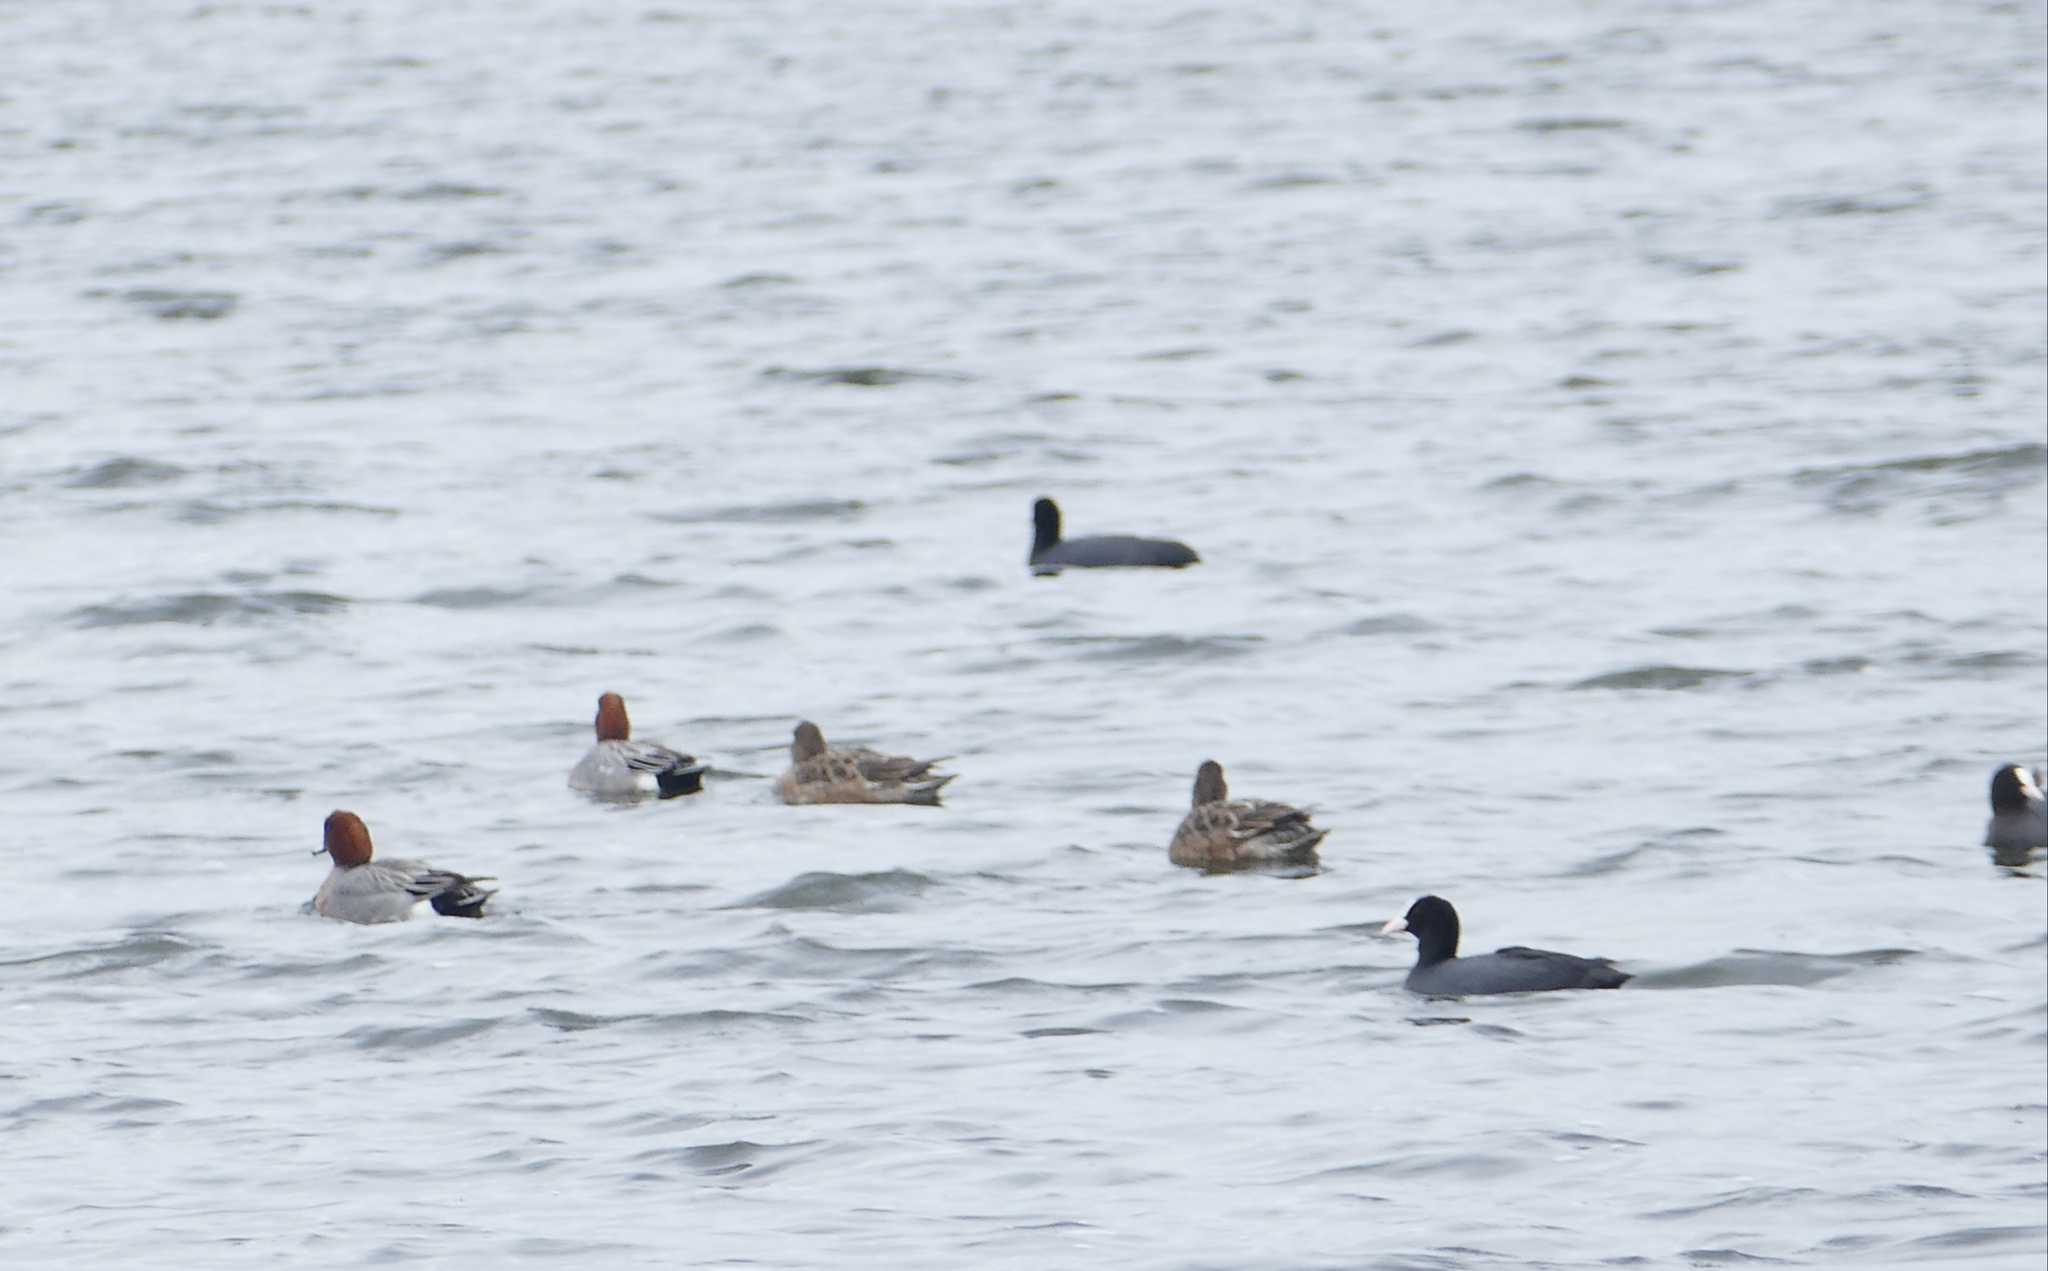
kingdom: Animalia
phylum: Chordata
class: Aves
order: Anseriformes
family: Anatidae
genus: Mareca
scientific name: Mareca penelope
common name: Eurasian wigeon
